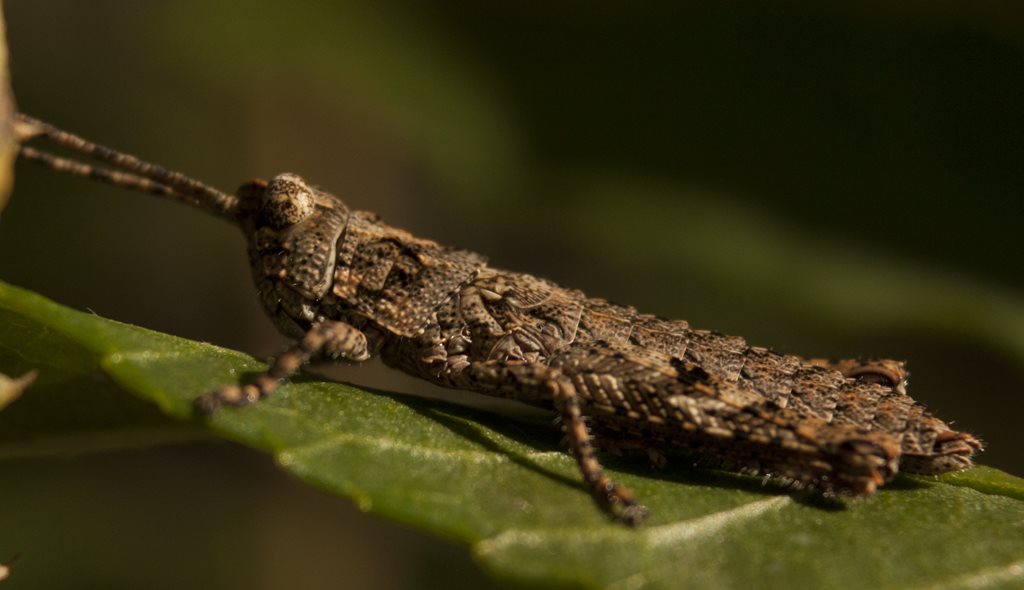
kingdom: Animalia
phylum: Arthropoda
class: Insecta
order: Orthoptera
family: Acrididae
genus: Adreppus
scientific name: Adreppus fallax
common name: Common adreppus
